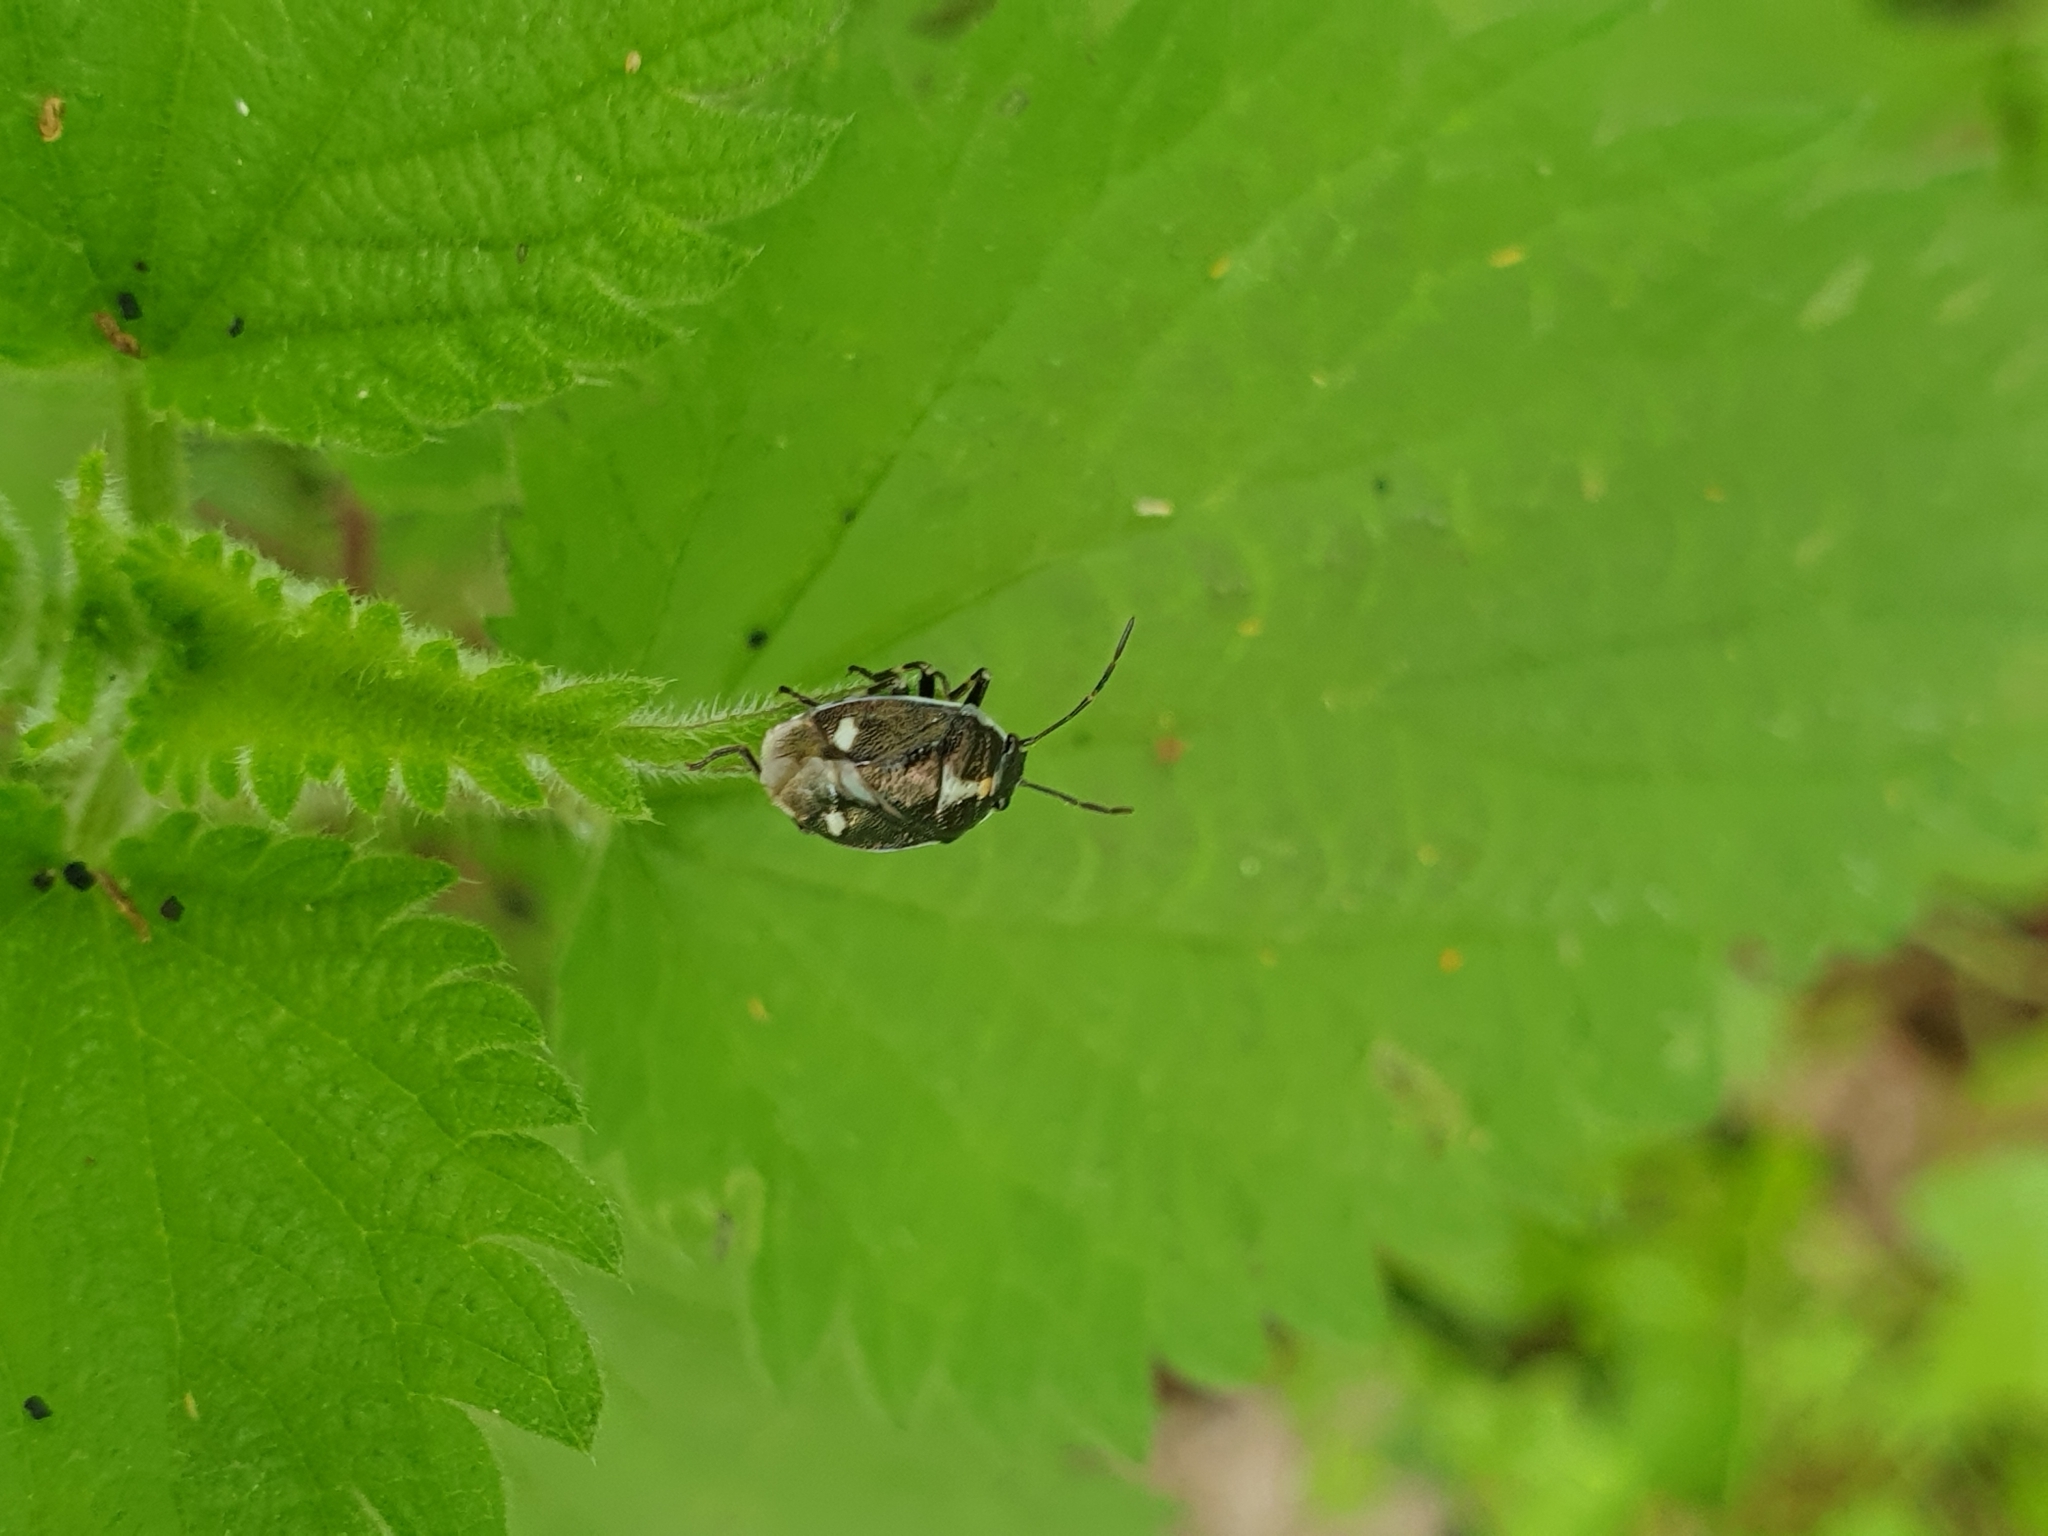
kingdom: Animalia
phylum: Arthropoda
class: Insecta
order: Hemiptera
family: Pentatomidae
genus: Eurydema
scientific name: Eurydema oleracea
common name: Cabbage bug
